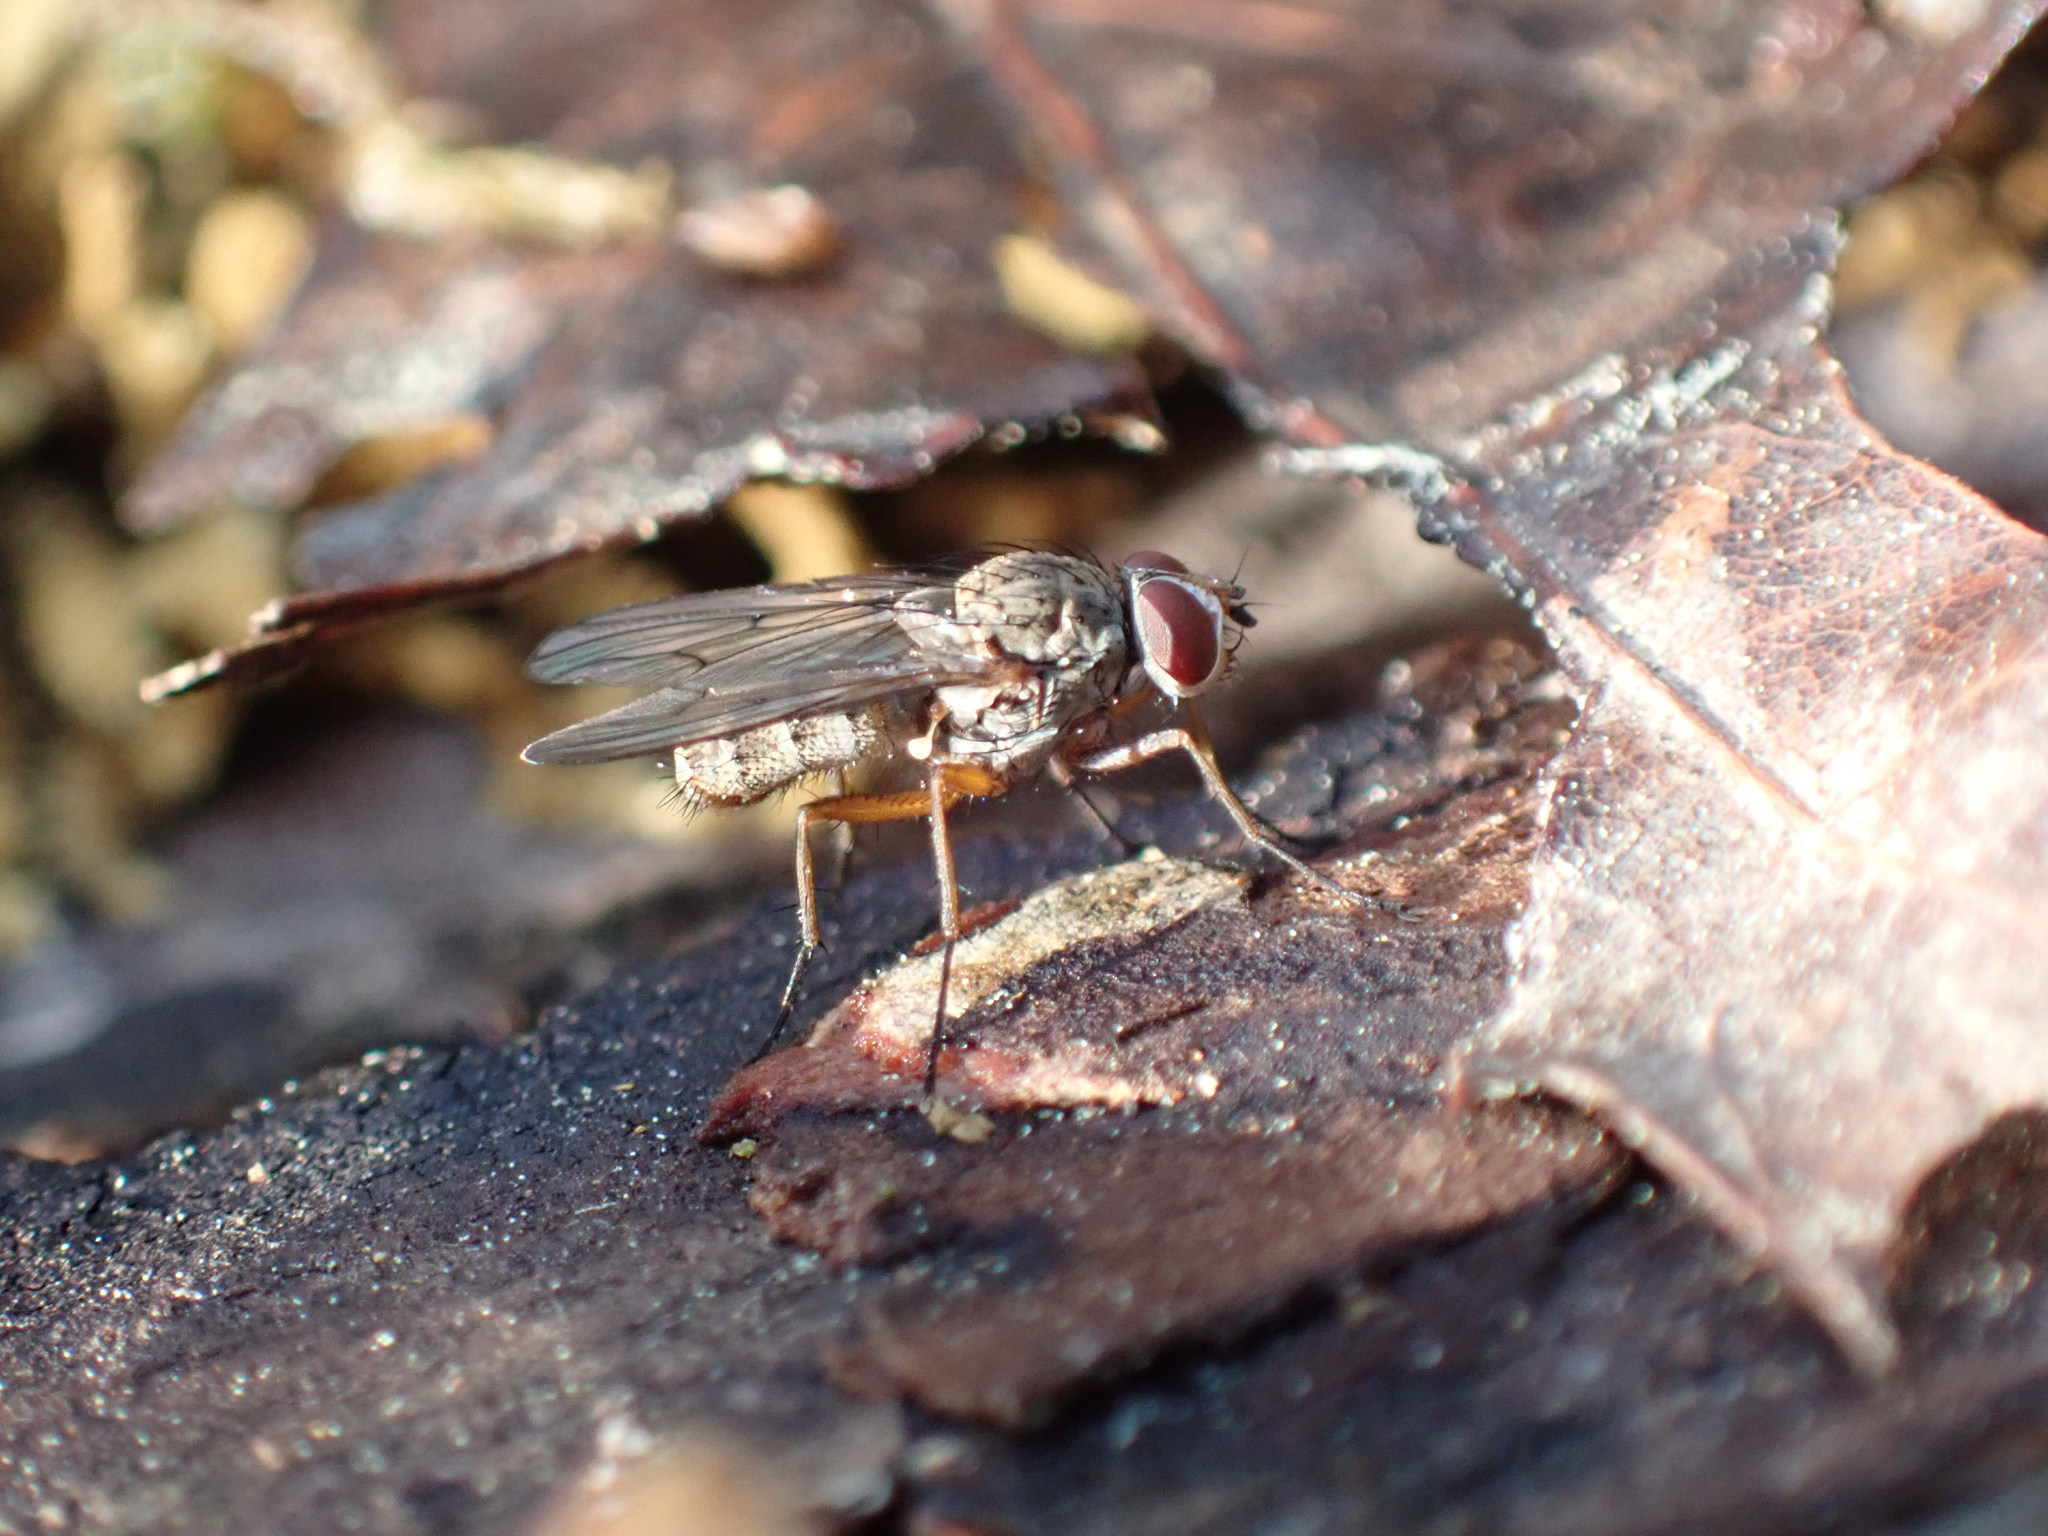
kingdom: Animalia
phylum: Arthropoda
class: Insecta
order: Diptera
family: Anthomyiidae
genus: Eutrichota
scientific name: Eutrichota affinis
